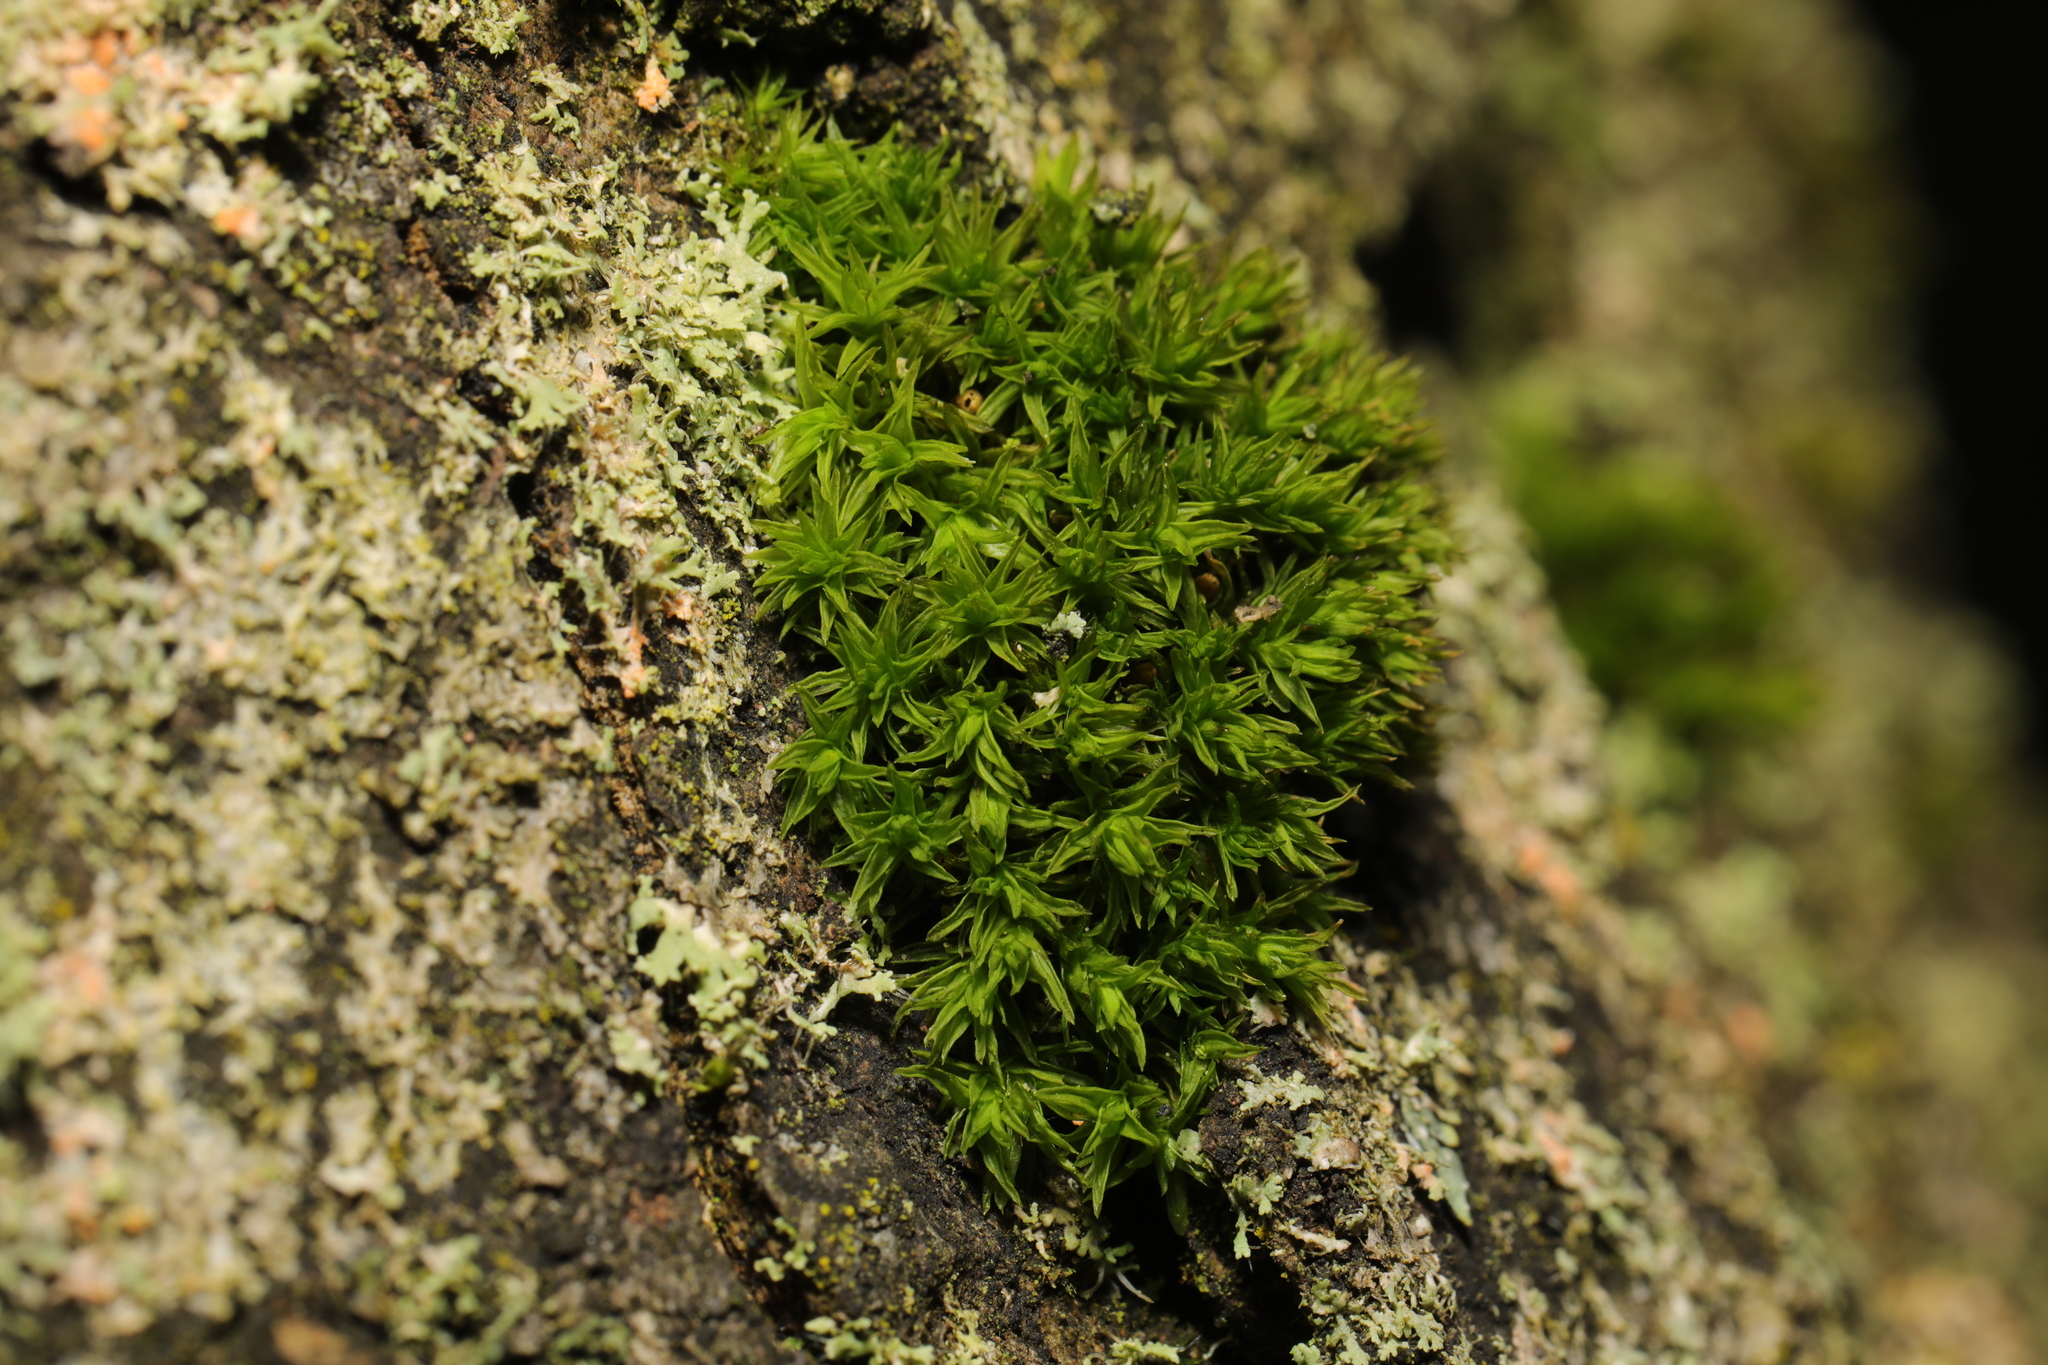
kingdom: Plantae
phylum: Bryophyta
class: Bryopsida
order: Orthotrichales
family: Orthotrichaceae
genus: Lewinskya
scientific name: Lewinskya affinis
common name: Wood bristle-moss
